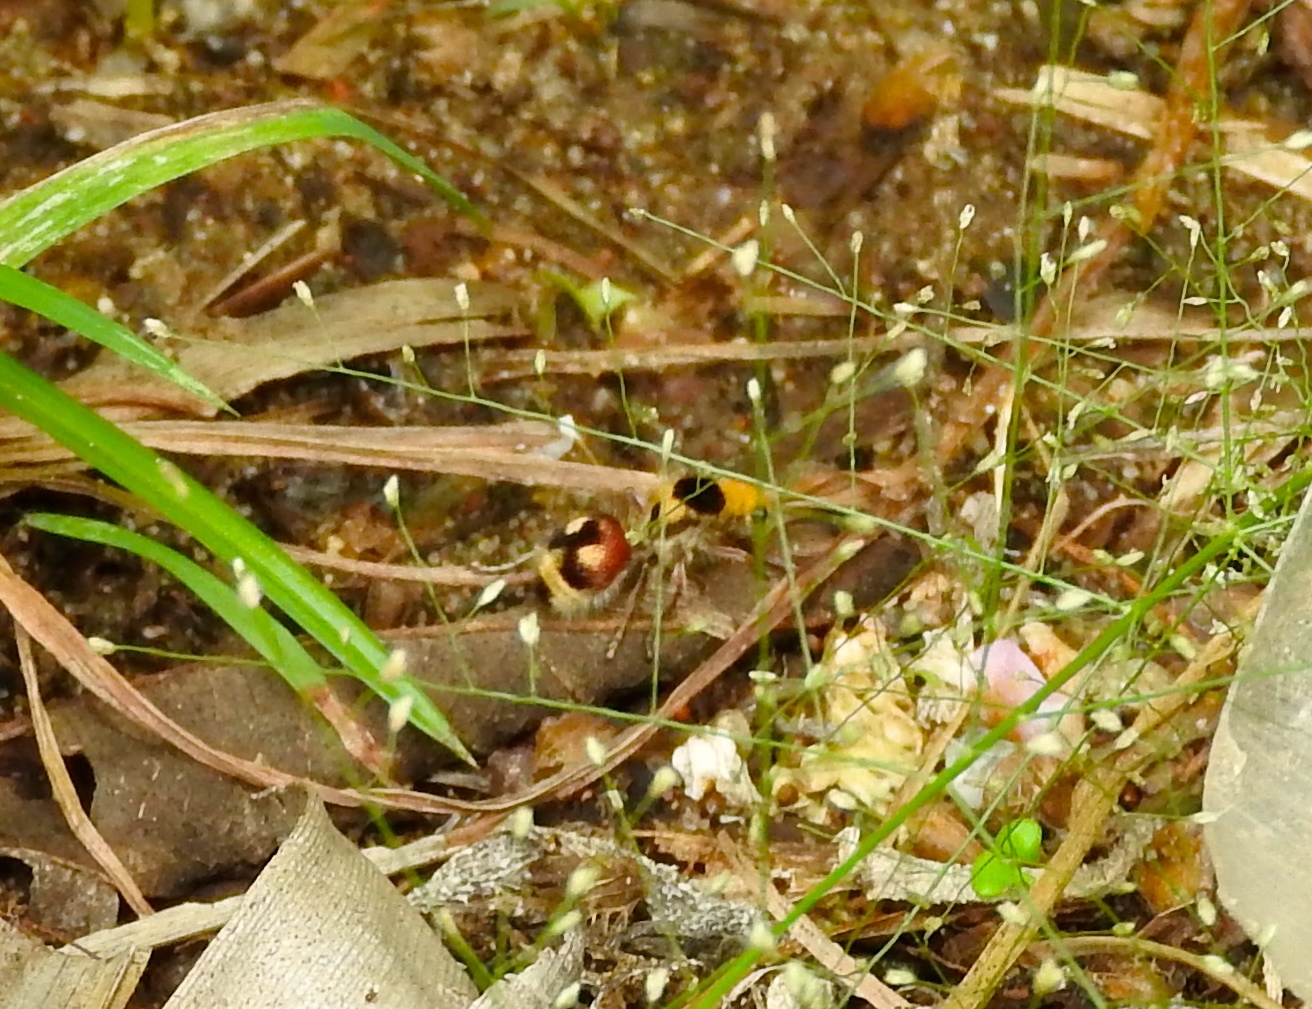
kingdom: Animalia
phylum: Arthropoda
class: Insecta
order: Hymenoptera
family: Mutillidae
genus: Dasymutilla
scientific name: Dasymutilla
